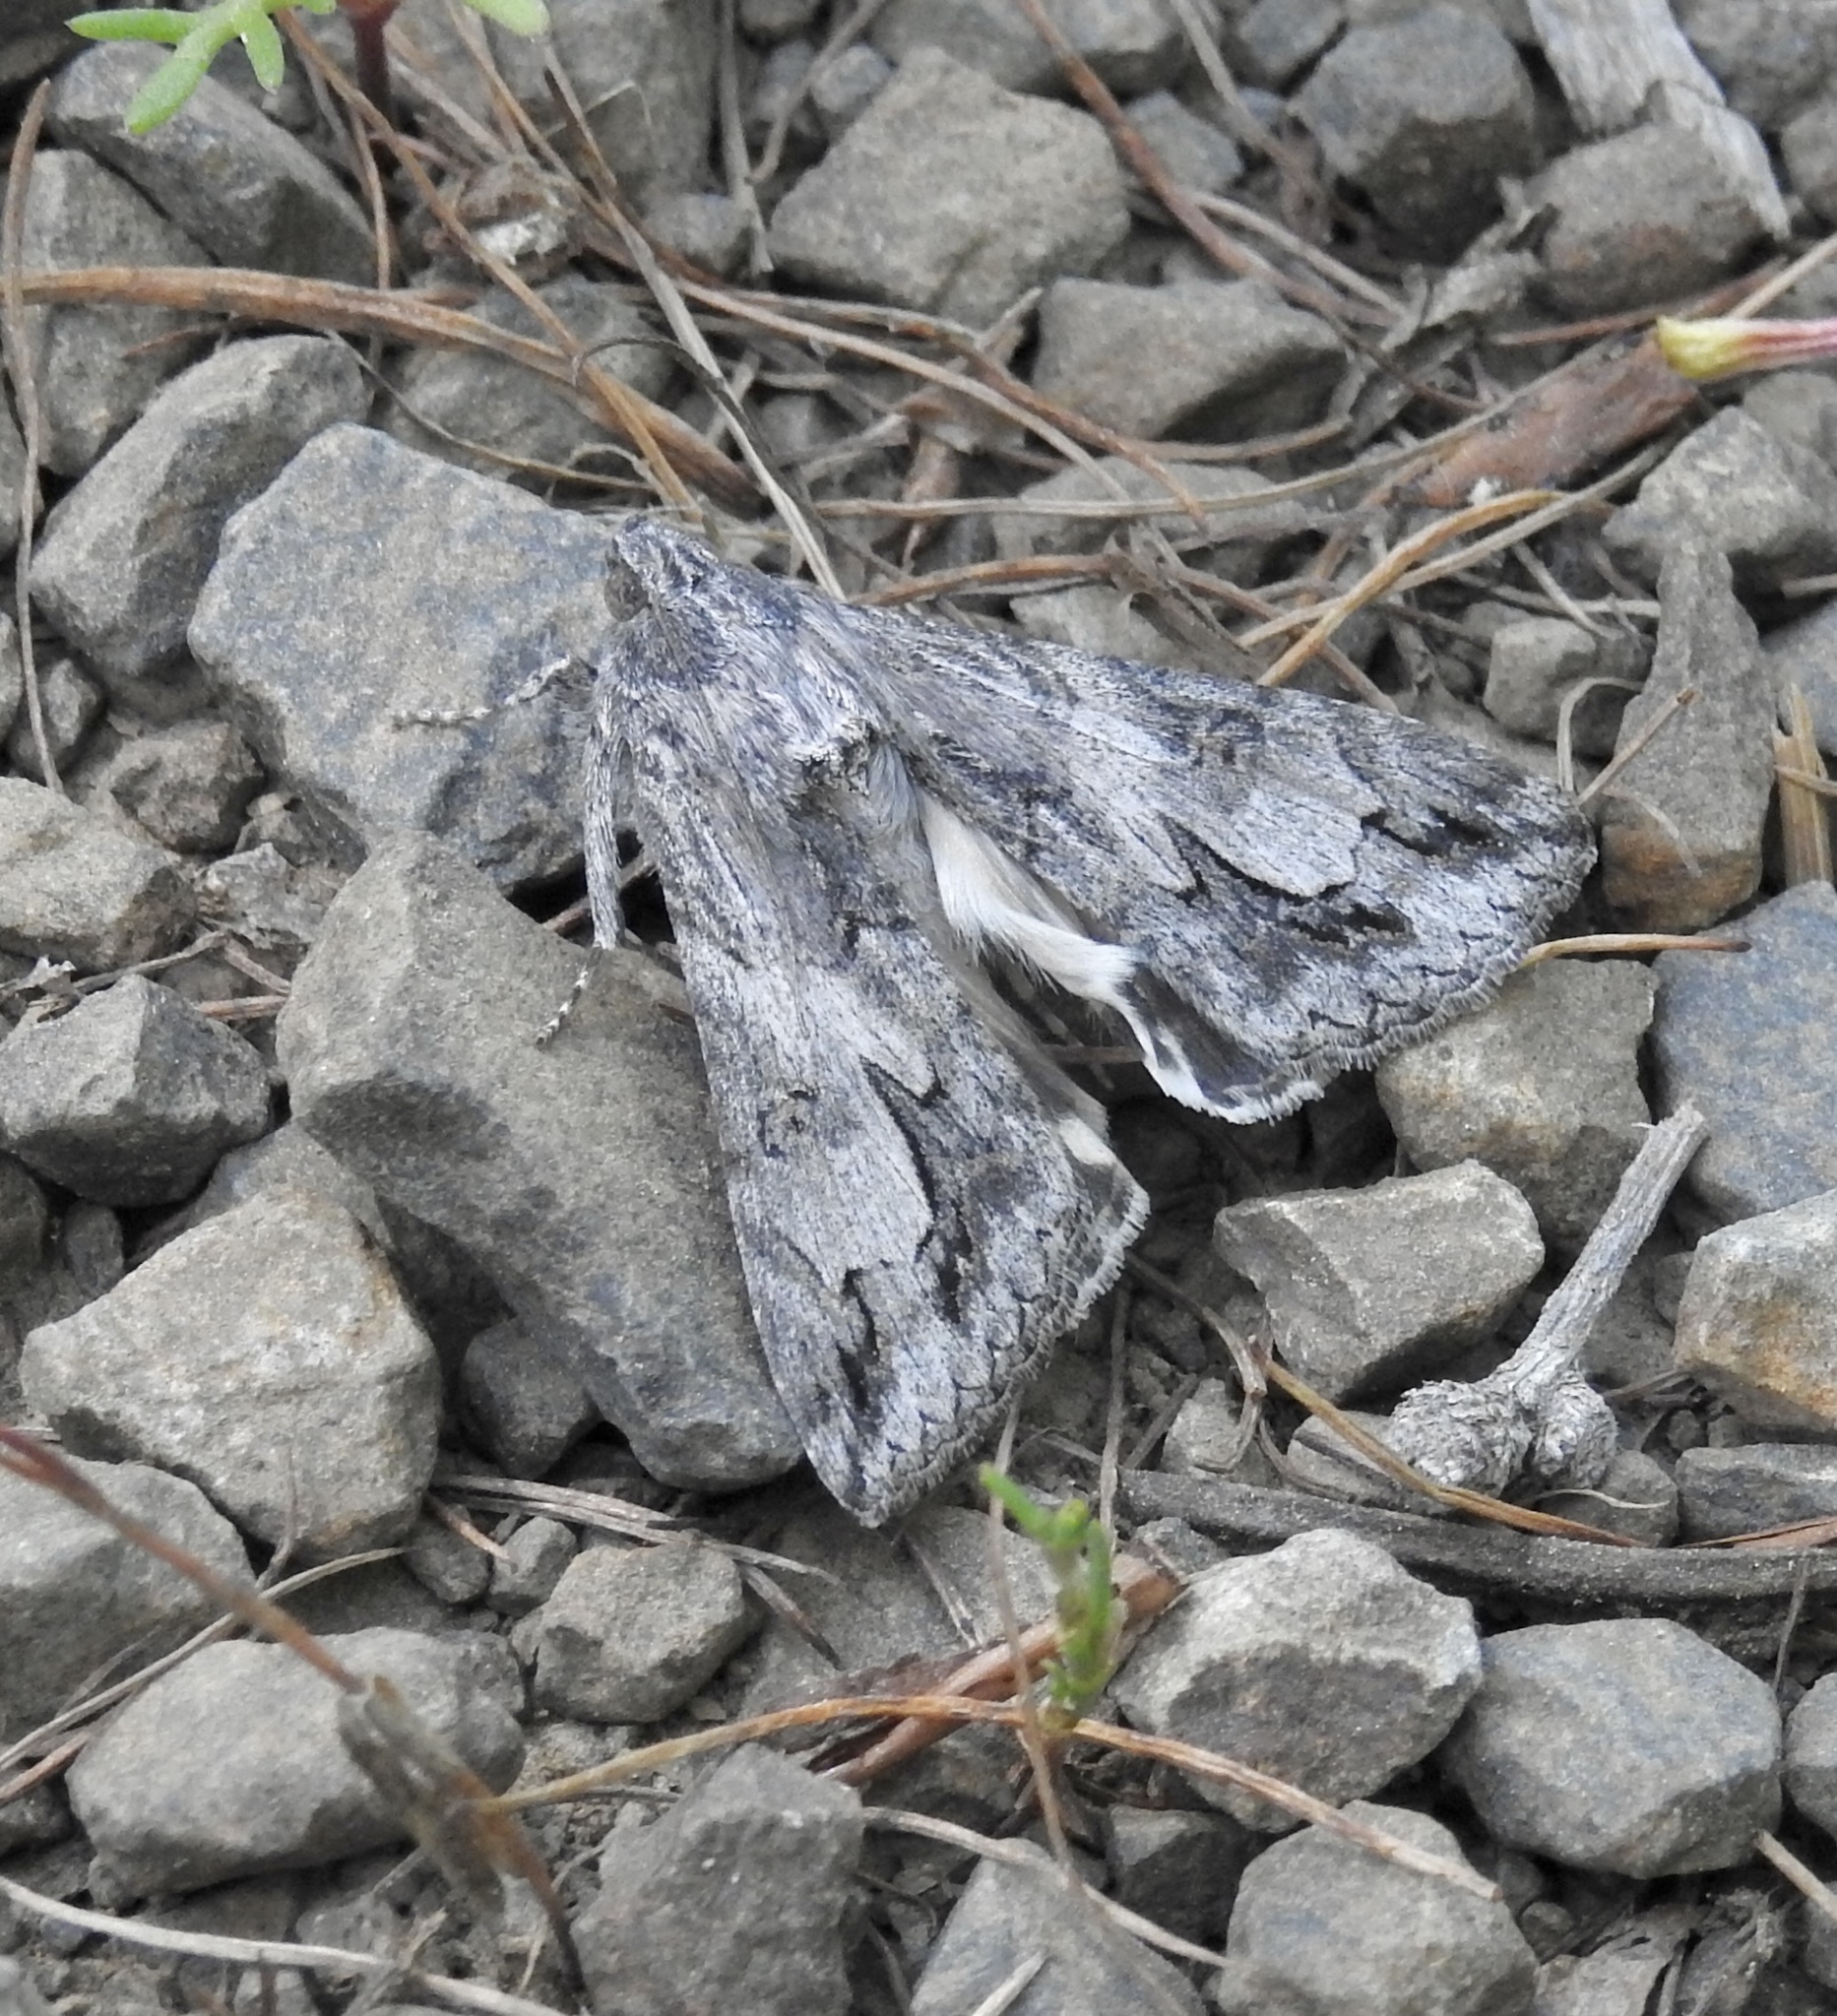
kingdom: Animalia
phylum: Arthropoda
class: Insecta
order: Lepidoptera
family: Erebidae
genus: Melipotis
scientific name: Melipotis jucunda
